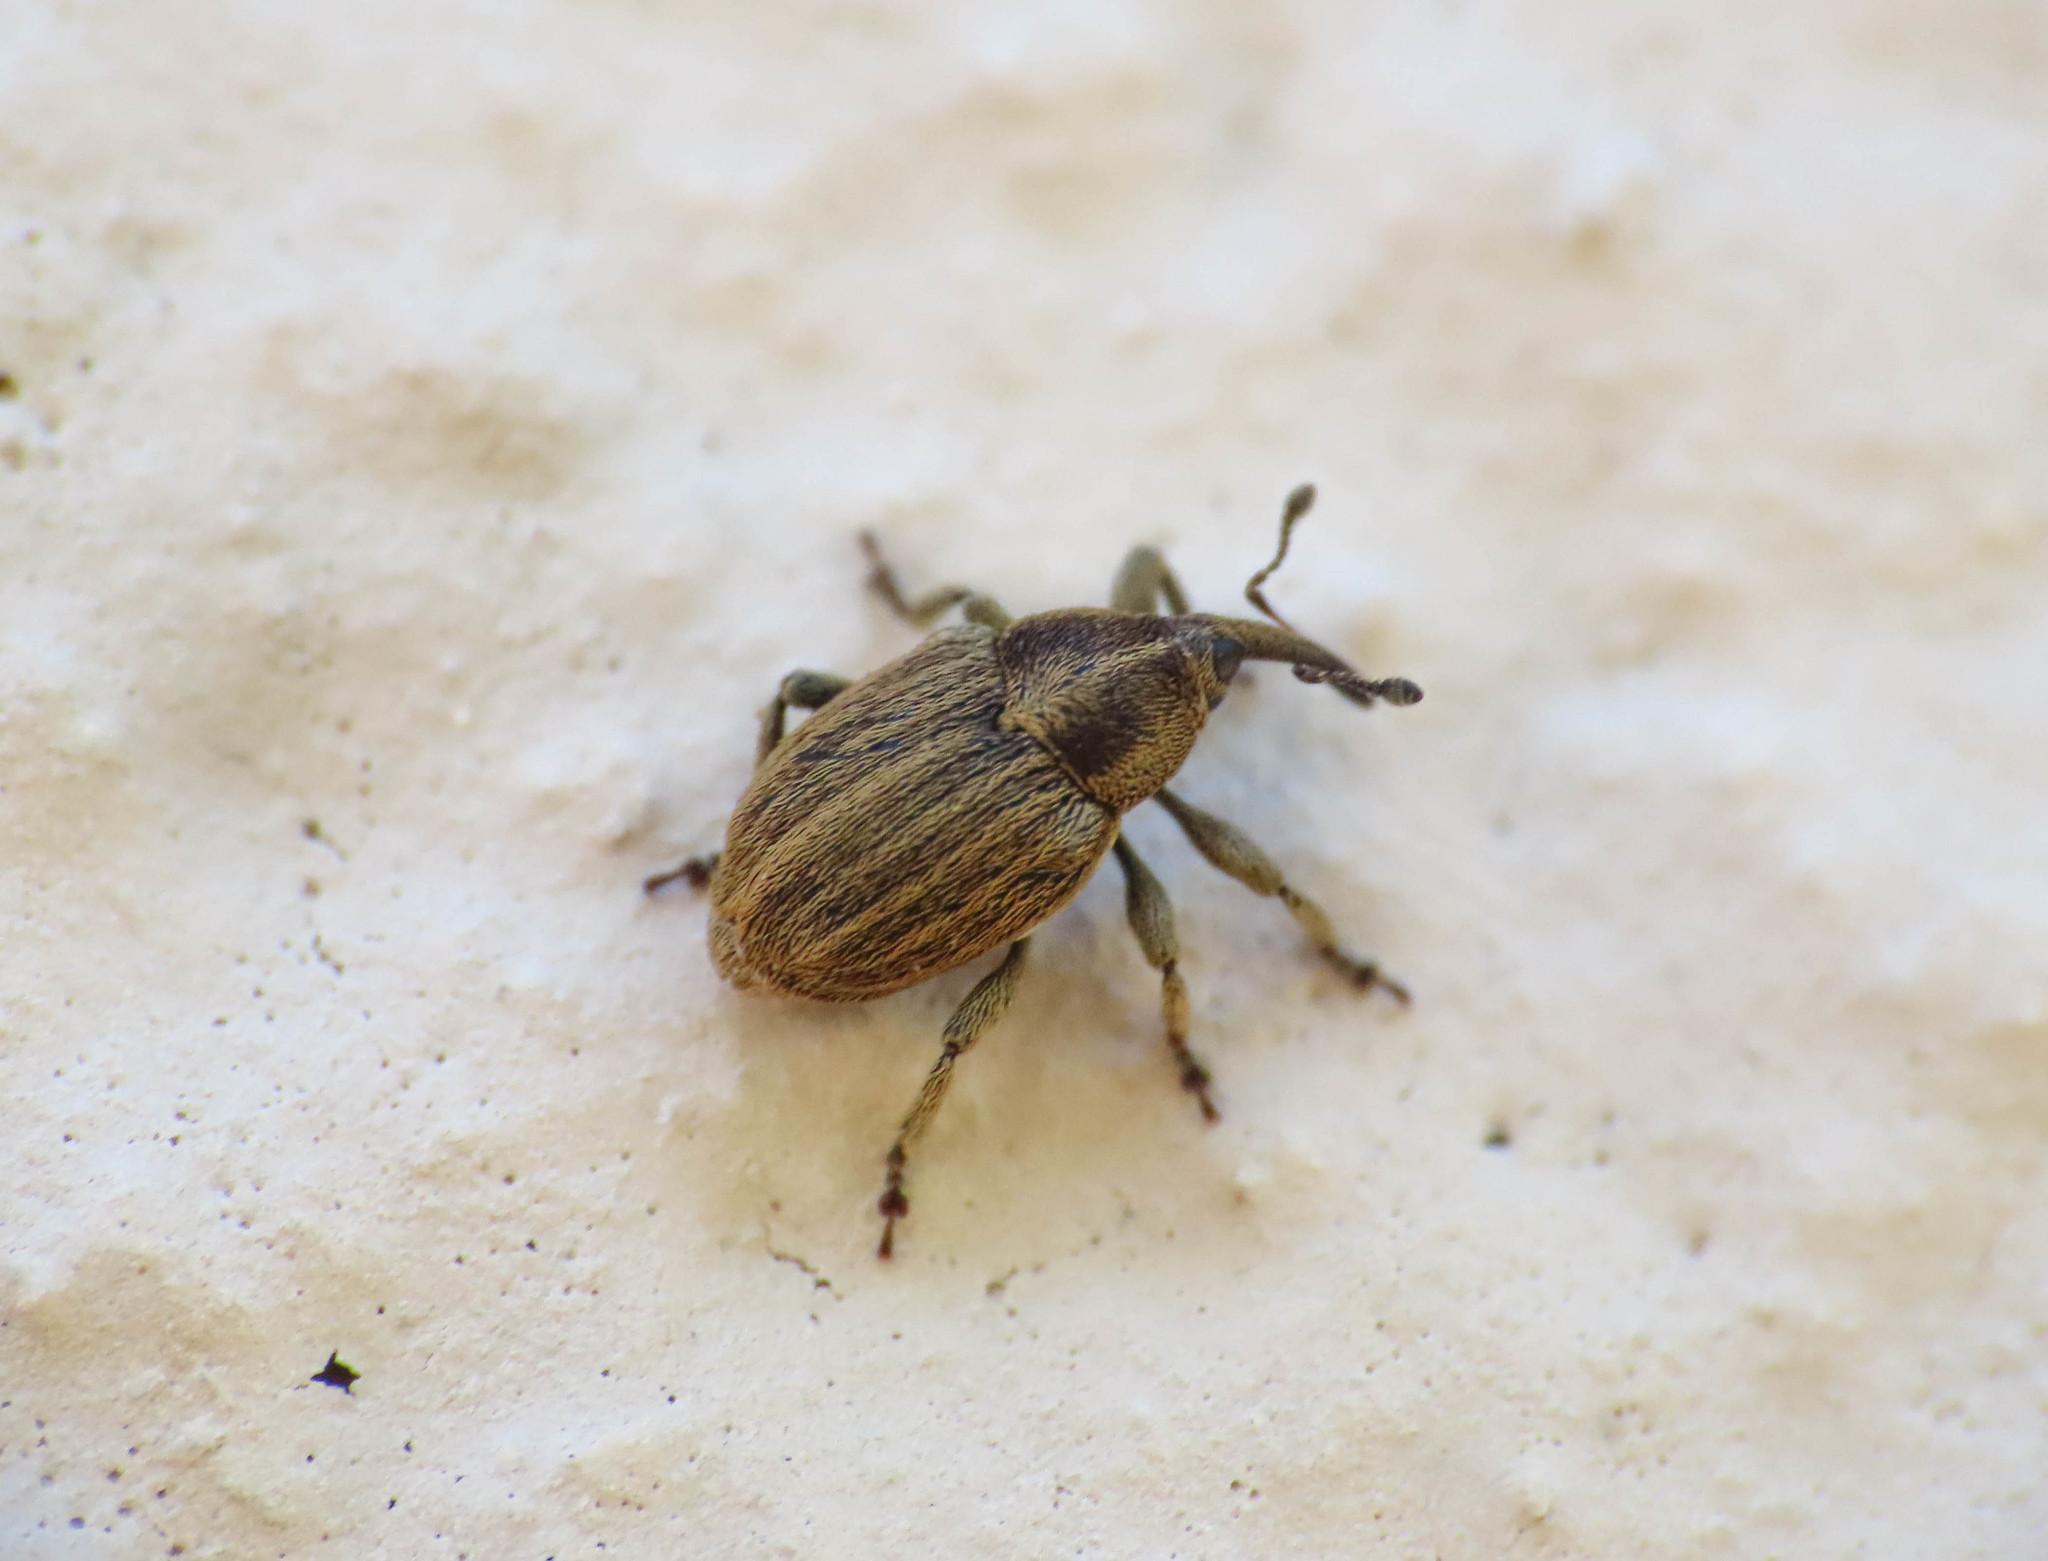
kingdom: Animalia
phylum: Arthropoda
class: Insecta
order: Coleoptera
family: Curculionidae
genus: Sibinia
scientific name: Sibinia pellucens
